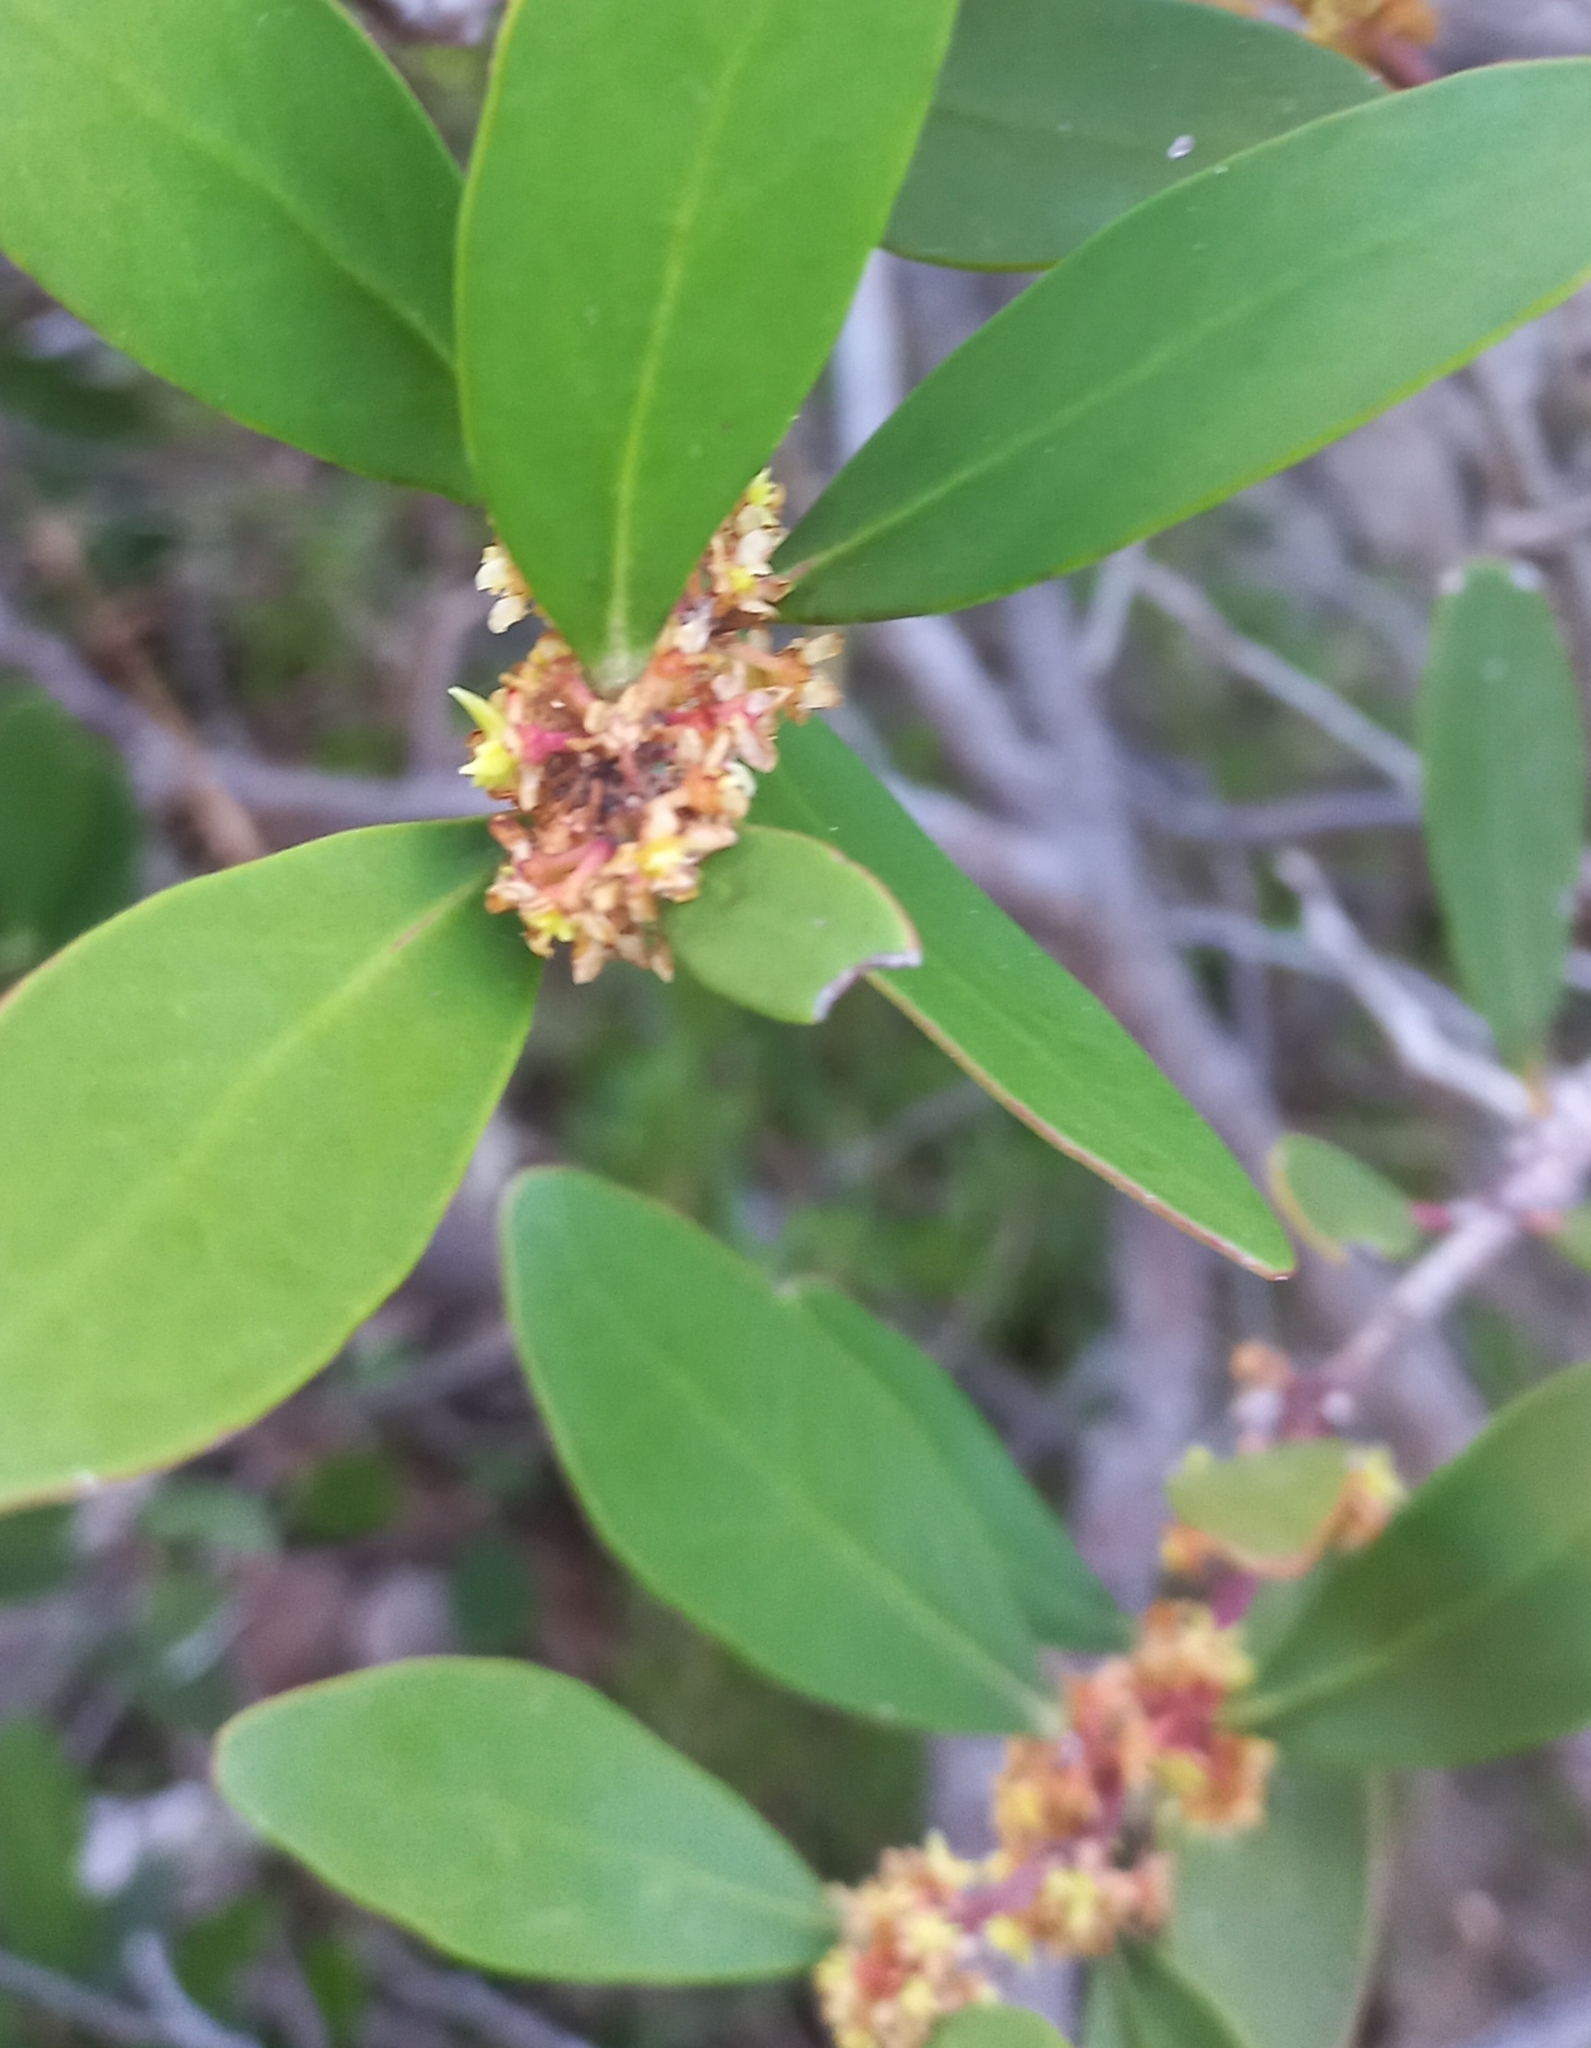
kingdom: Plantae
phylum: Tracheophyta
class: Magnoliopsida
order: Celastrales
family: Celastraceae
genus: Pterocelastrus
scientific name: Pterocelastrus tricuspidatus
